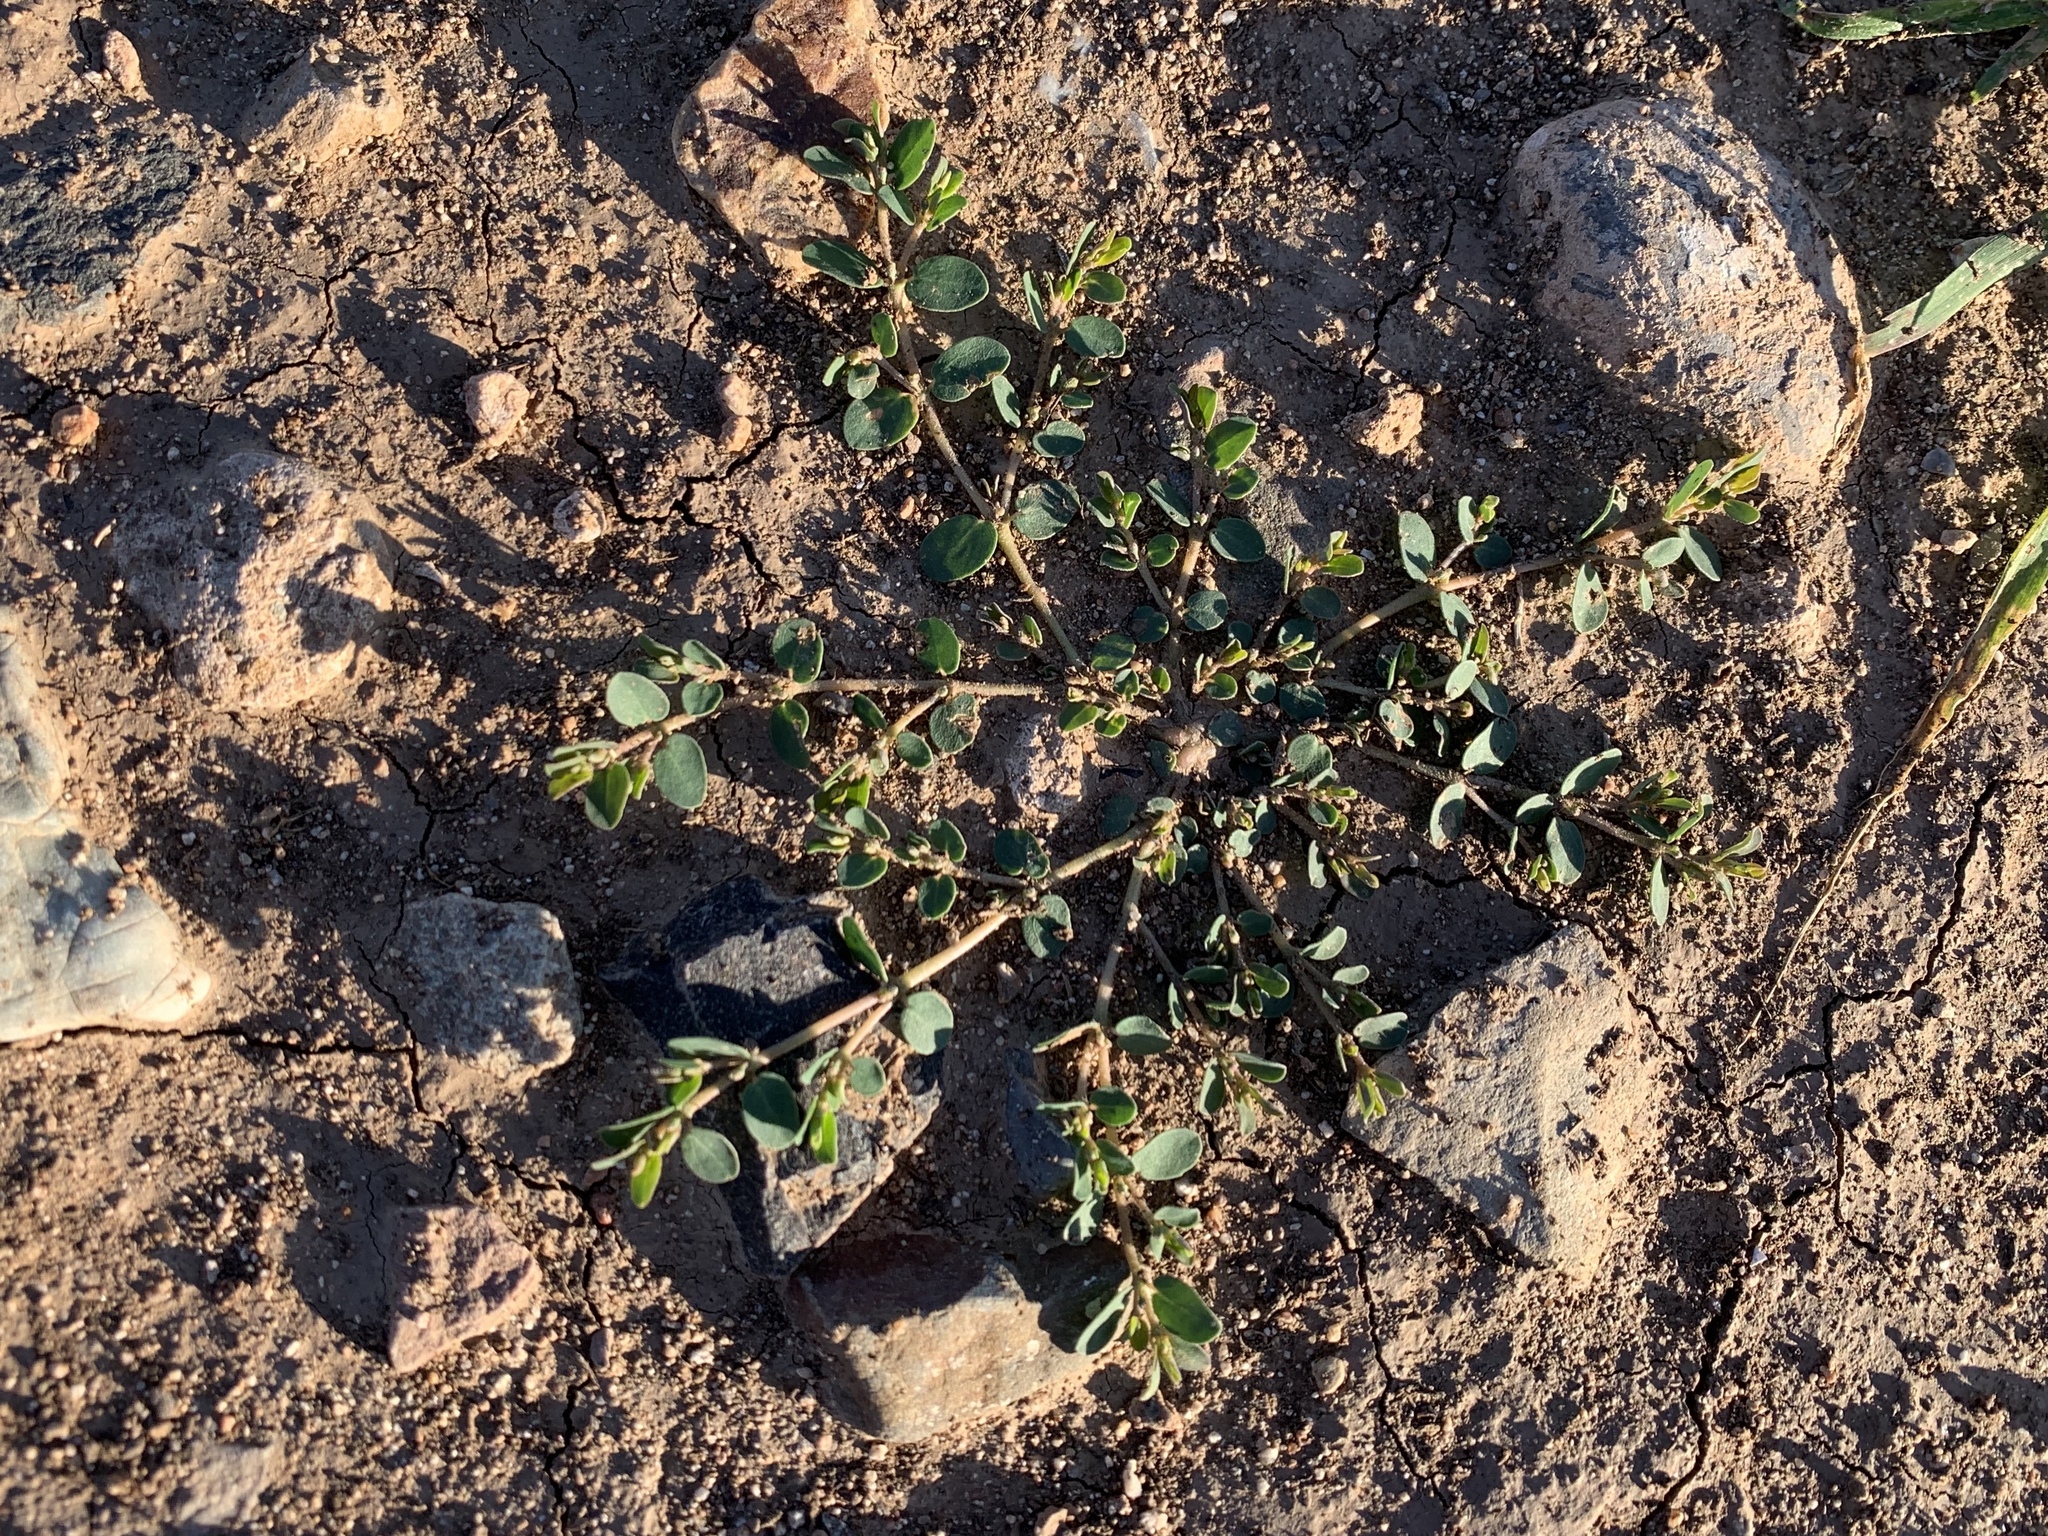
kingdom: Plantae
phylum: Tracheophyta
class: Magnoliopsida
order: Malpighiales
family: Euphorbiaceae
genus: Euphorbia
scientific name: Euphorbia prostrata
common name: Prostrate sandmat
